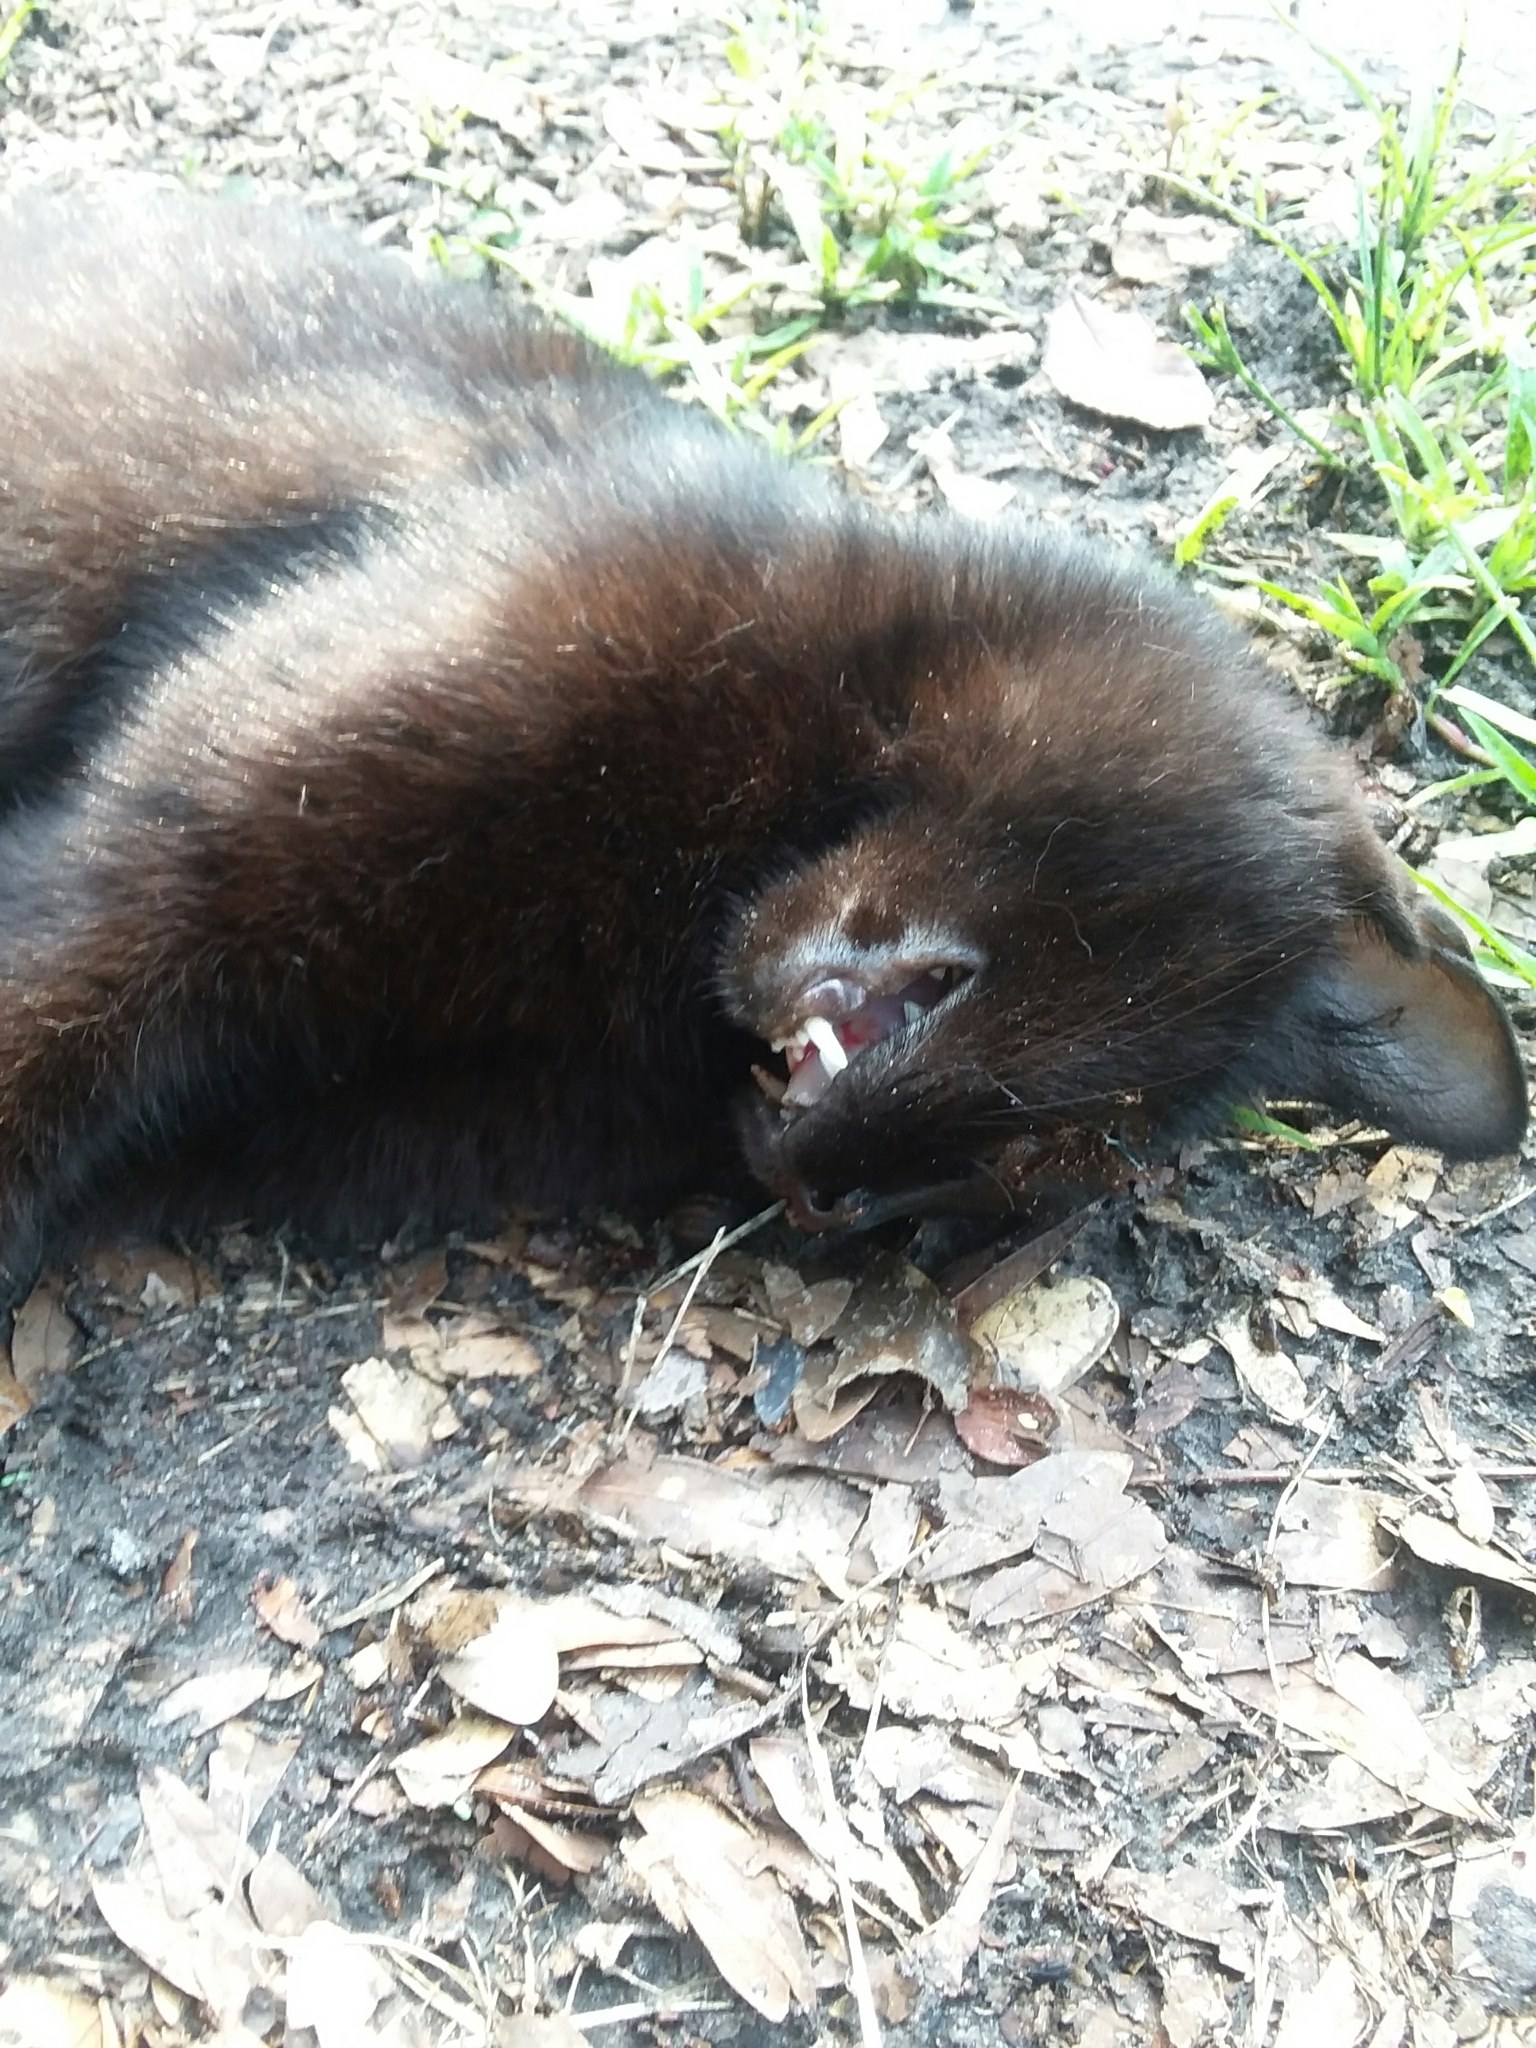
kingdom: Animalia
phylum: Chordata
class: Mammalia
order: Carnivora
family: Felidae
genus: Felis
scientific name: Felis catus
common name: Domestic cat
